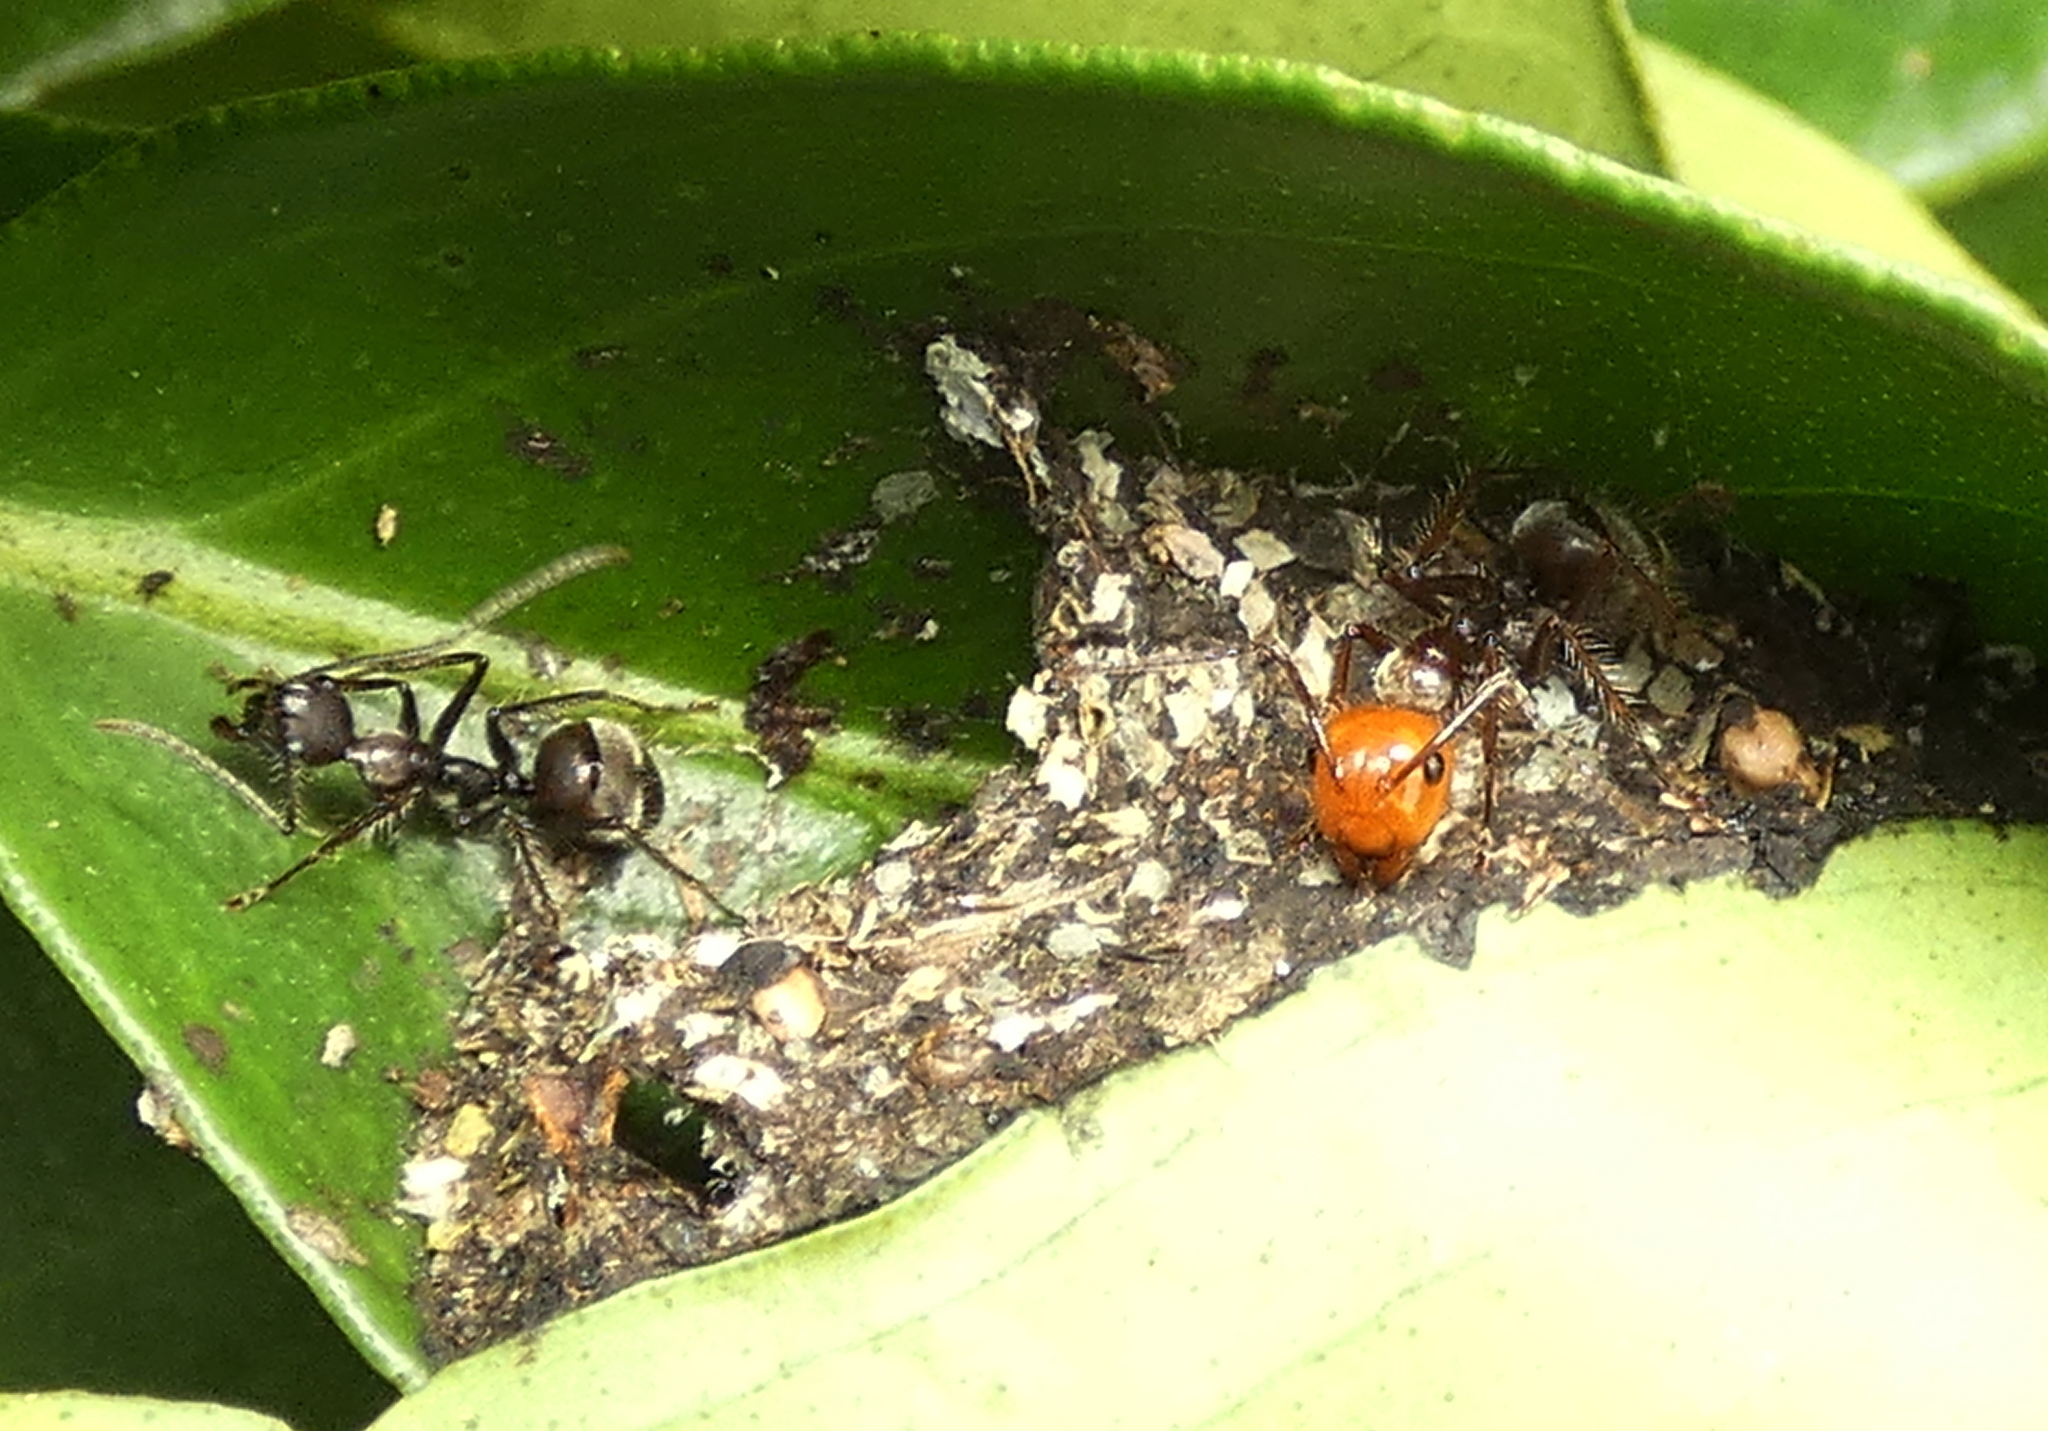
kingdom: Animalia
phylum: Arthropoda
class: Insecta
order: Hymenoptera
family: Formicidae
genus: Camponotus
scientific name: Camponotus urichi
